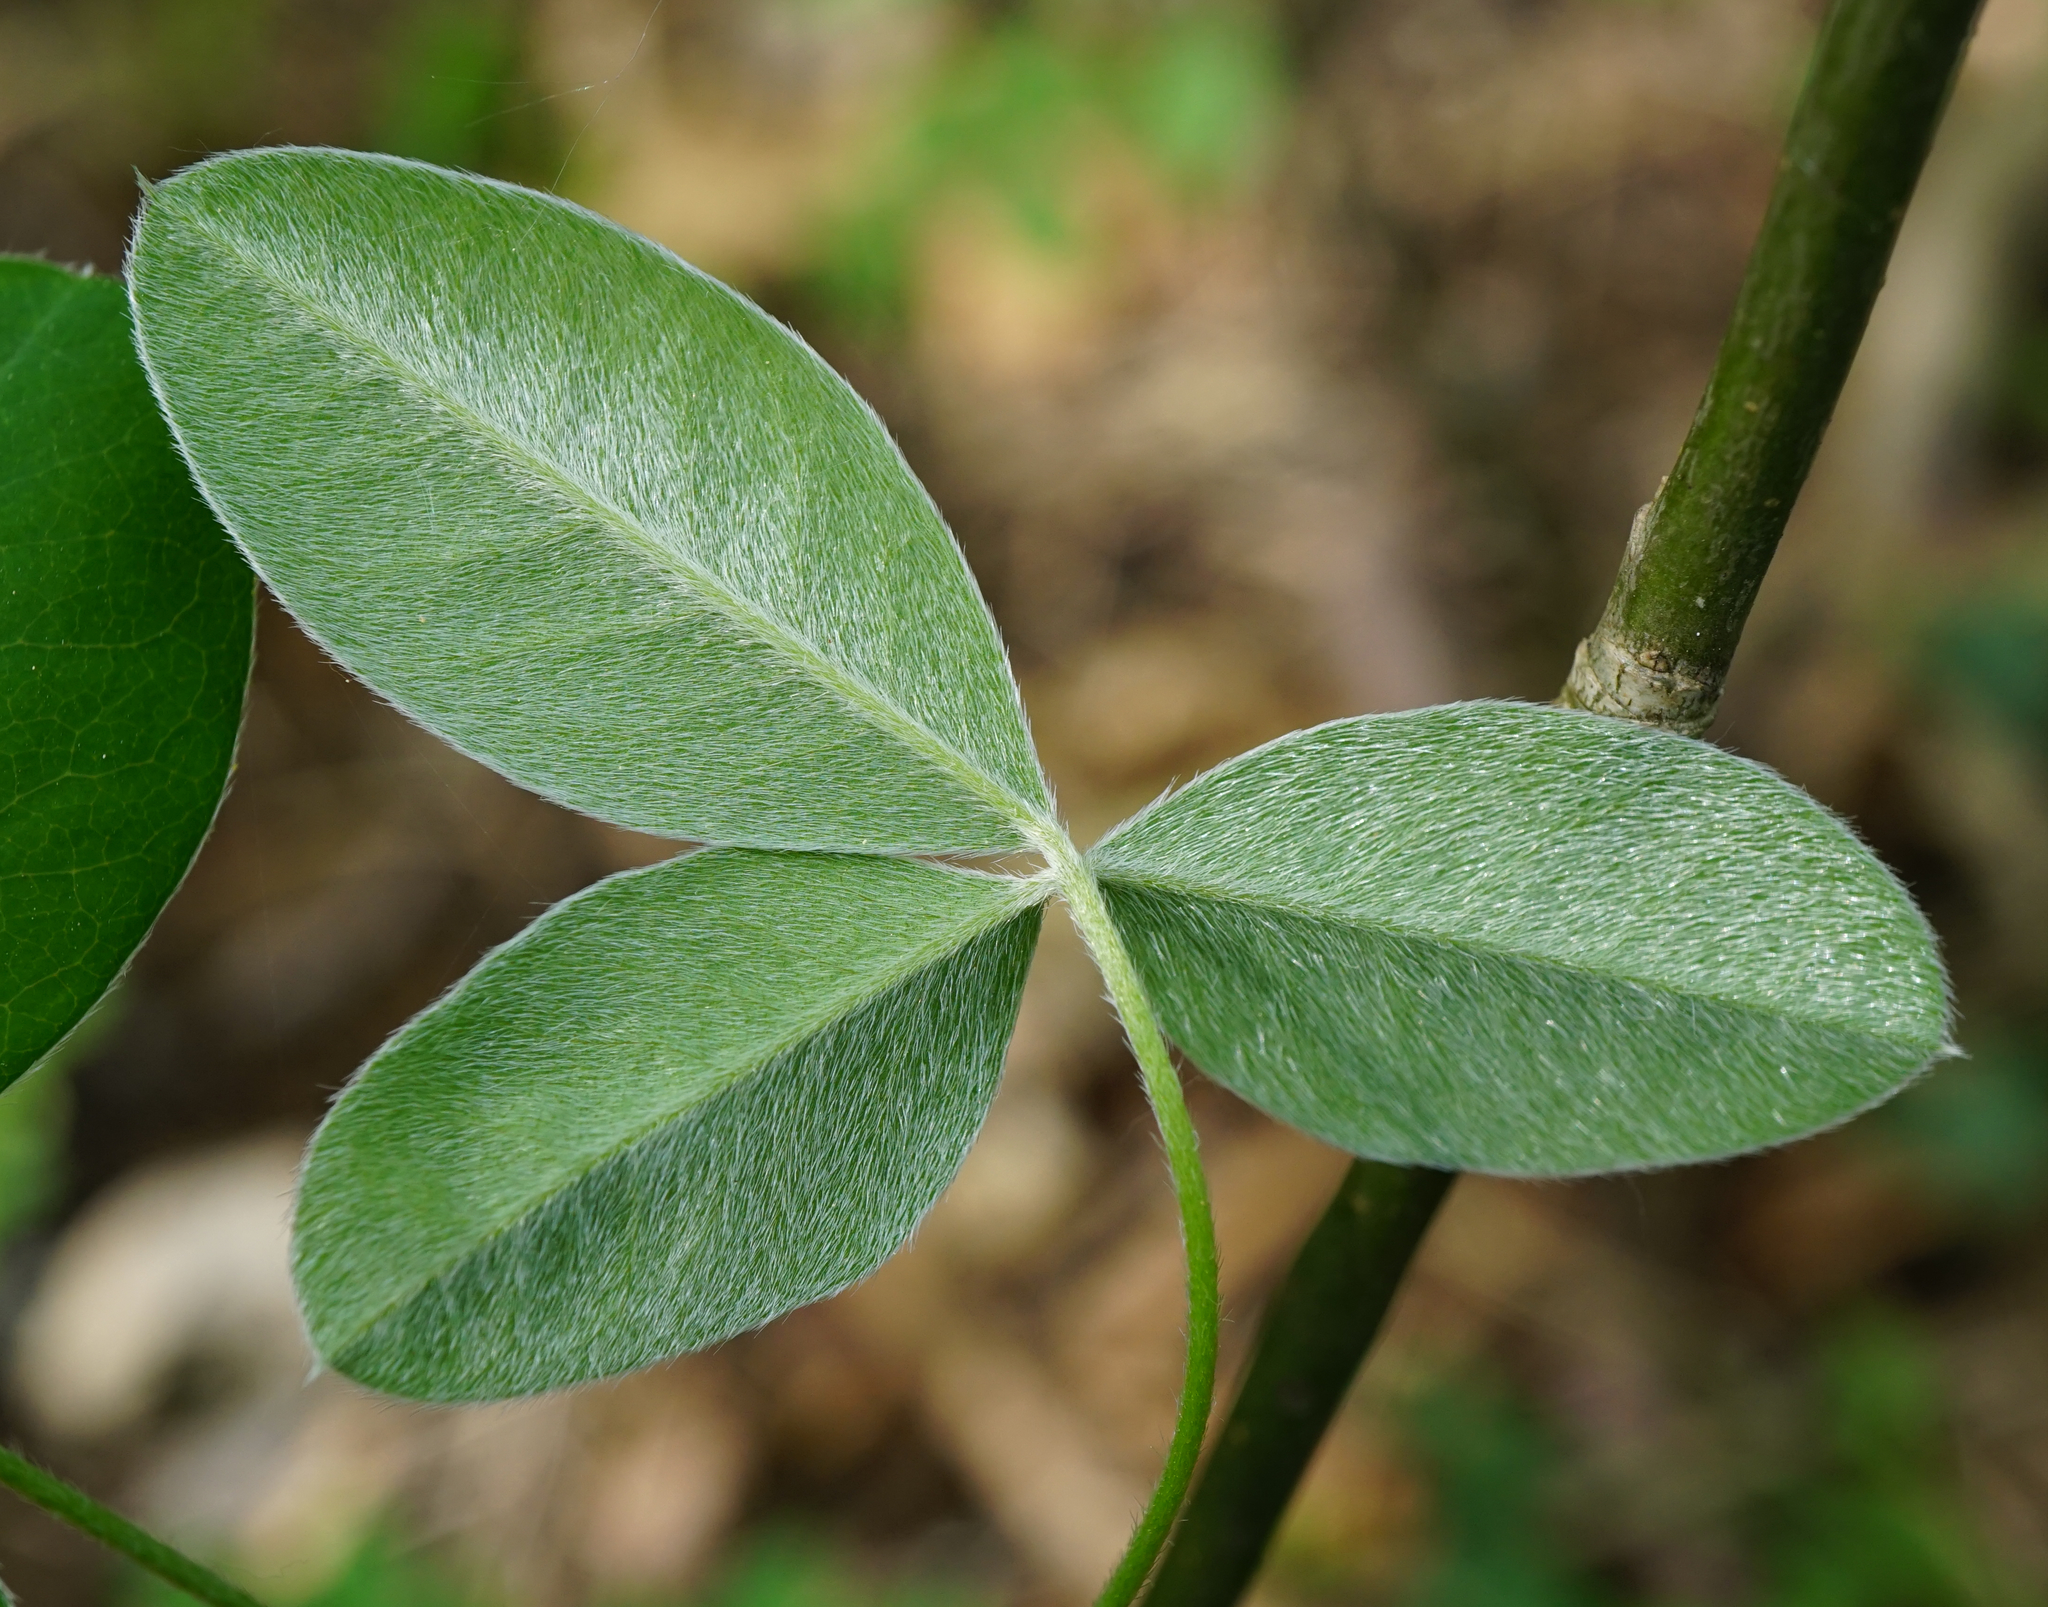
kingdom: Plantae
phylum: Tracheophyta
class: Magnoliopsida
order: Fabales
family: Fabaceae
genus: Laburnum
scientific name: Laburnum anagyroides
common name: Laburnum
